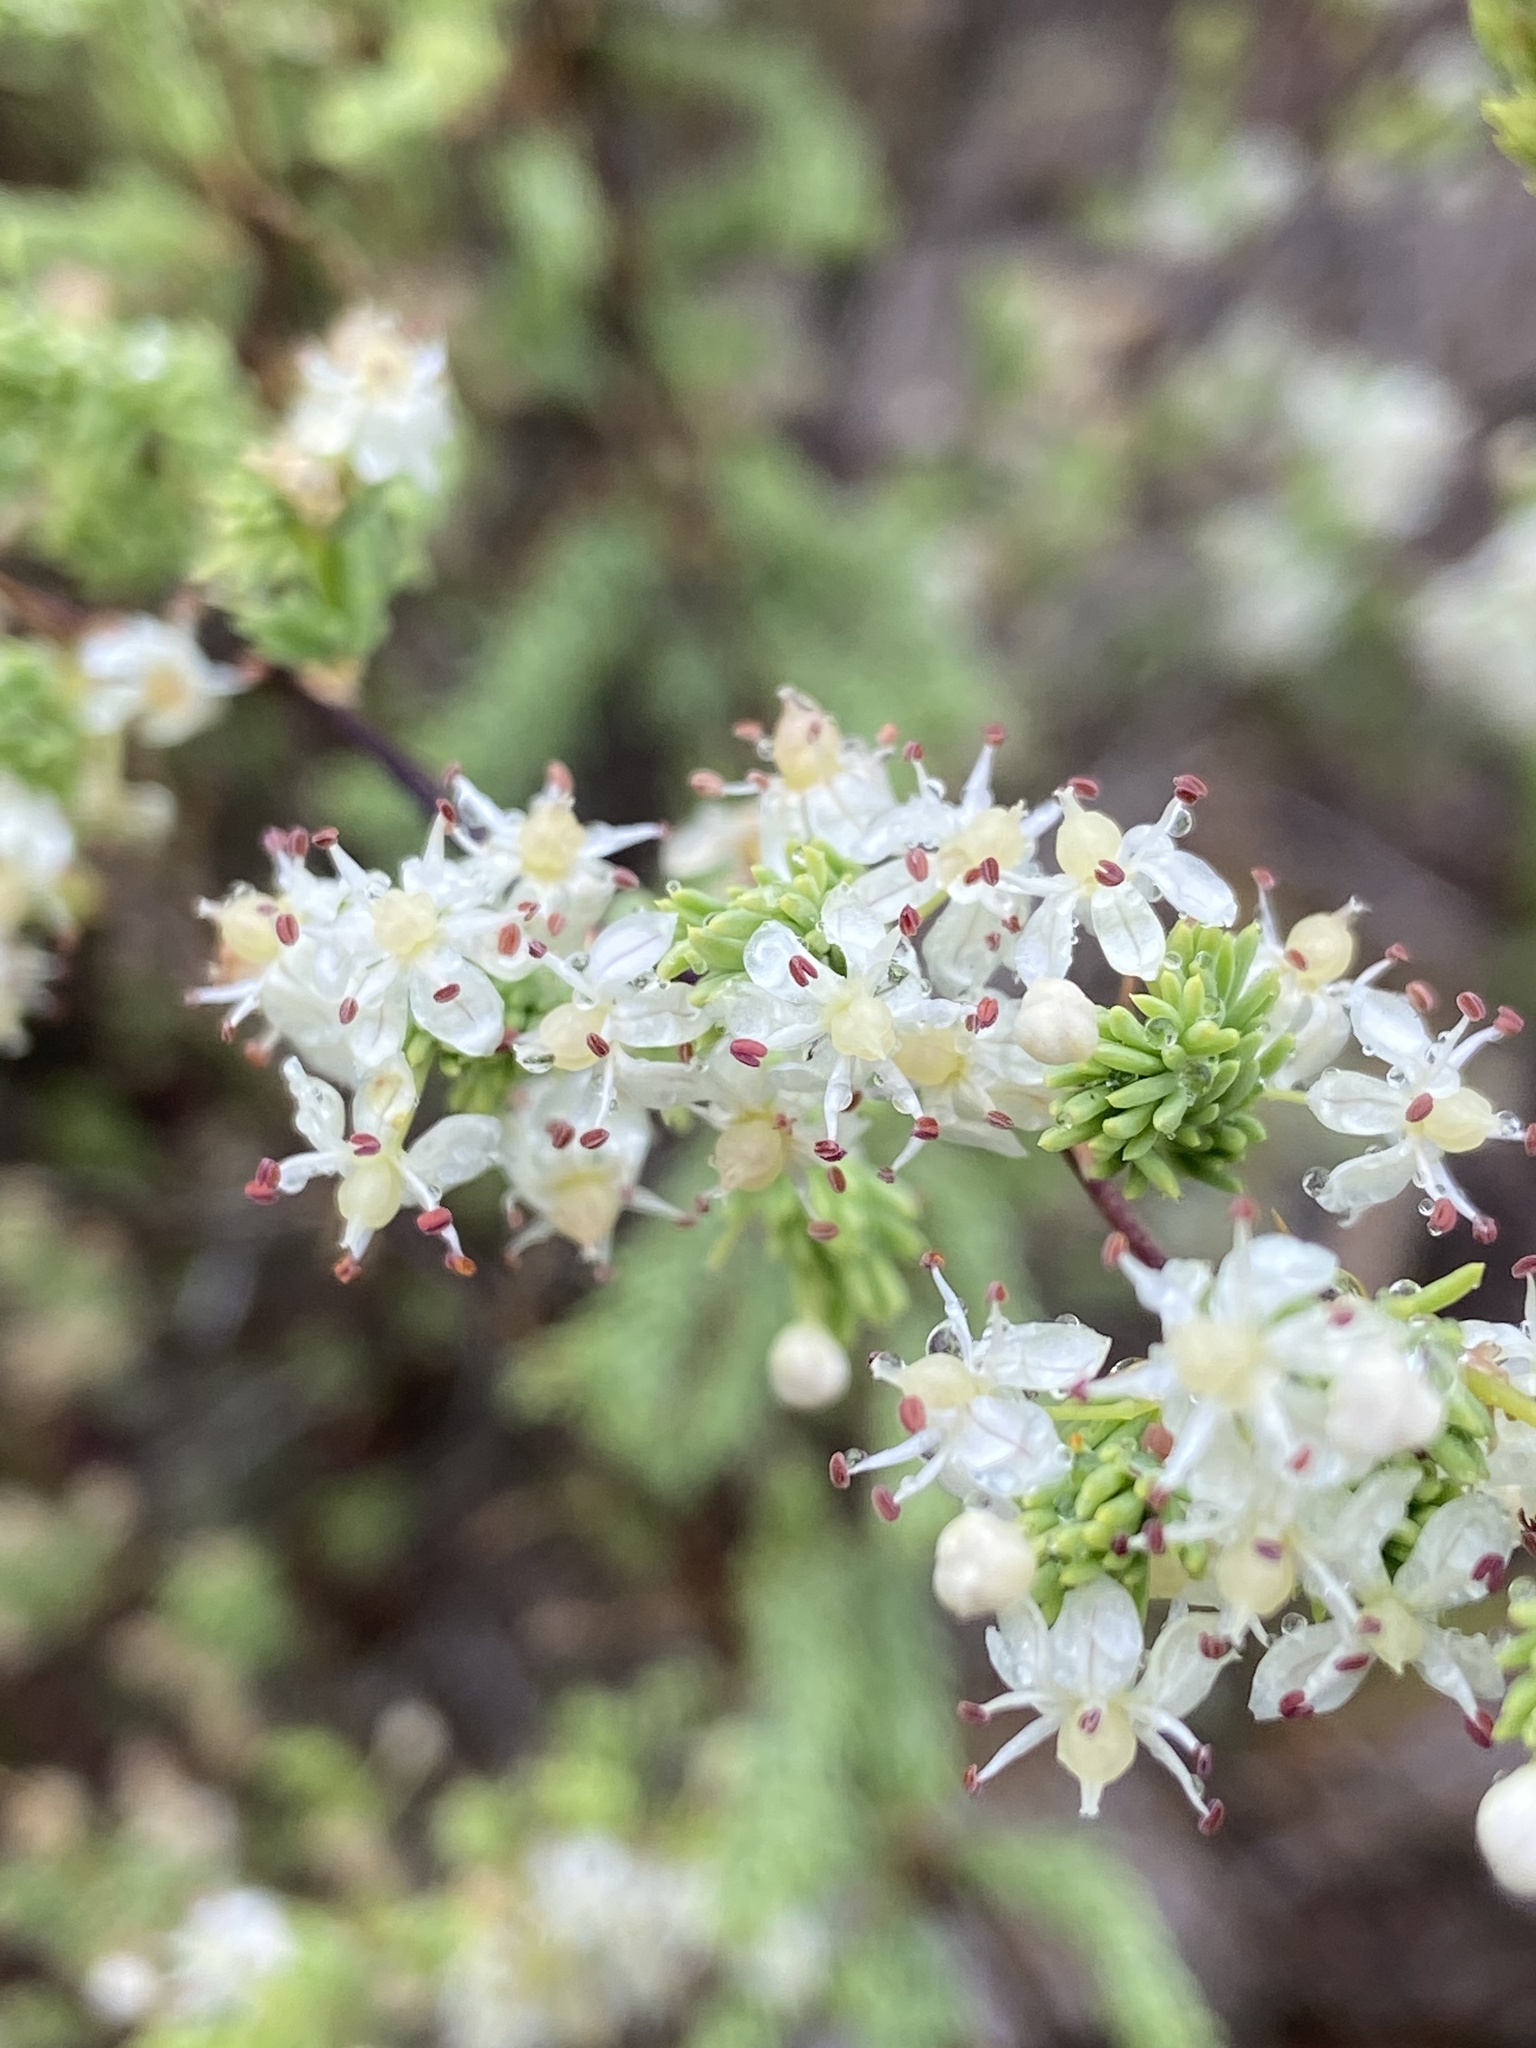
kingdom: Plantae
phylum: Tracheophyta
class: Liliopsida
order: Asparagales
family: Asparagaceae
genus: Asparagus
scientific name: Asparagus rubicundus
